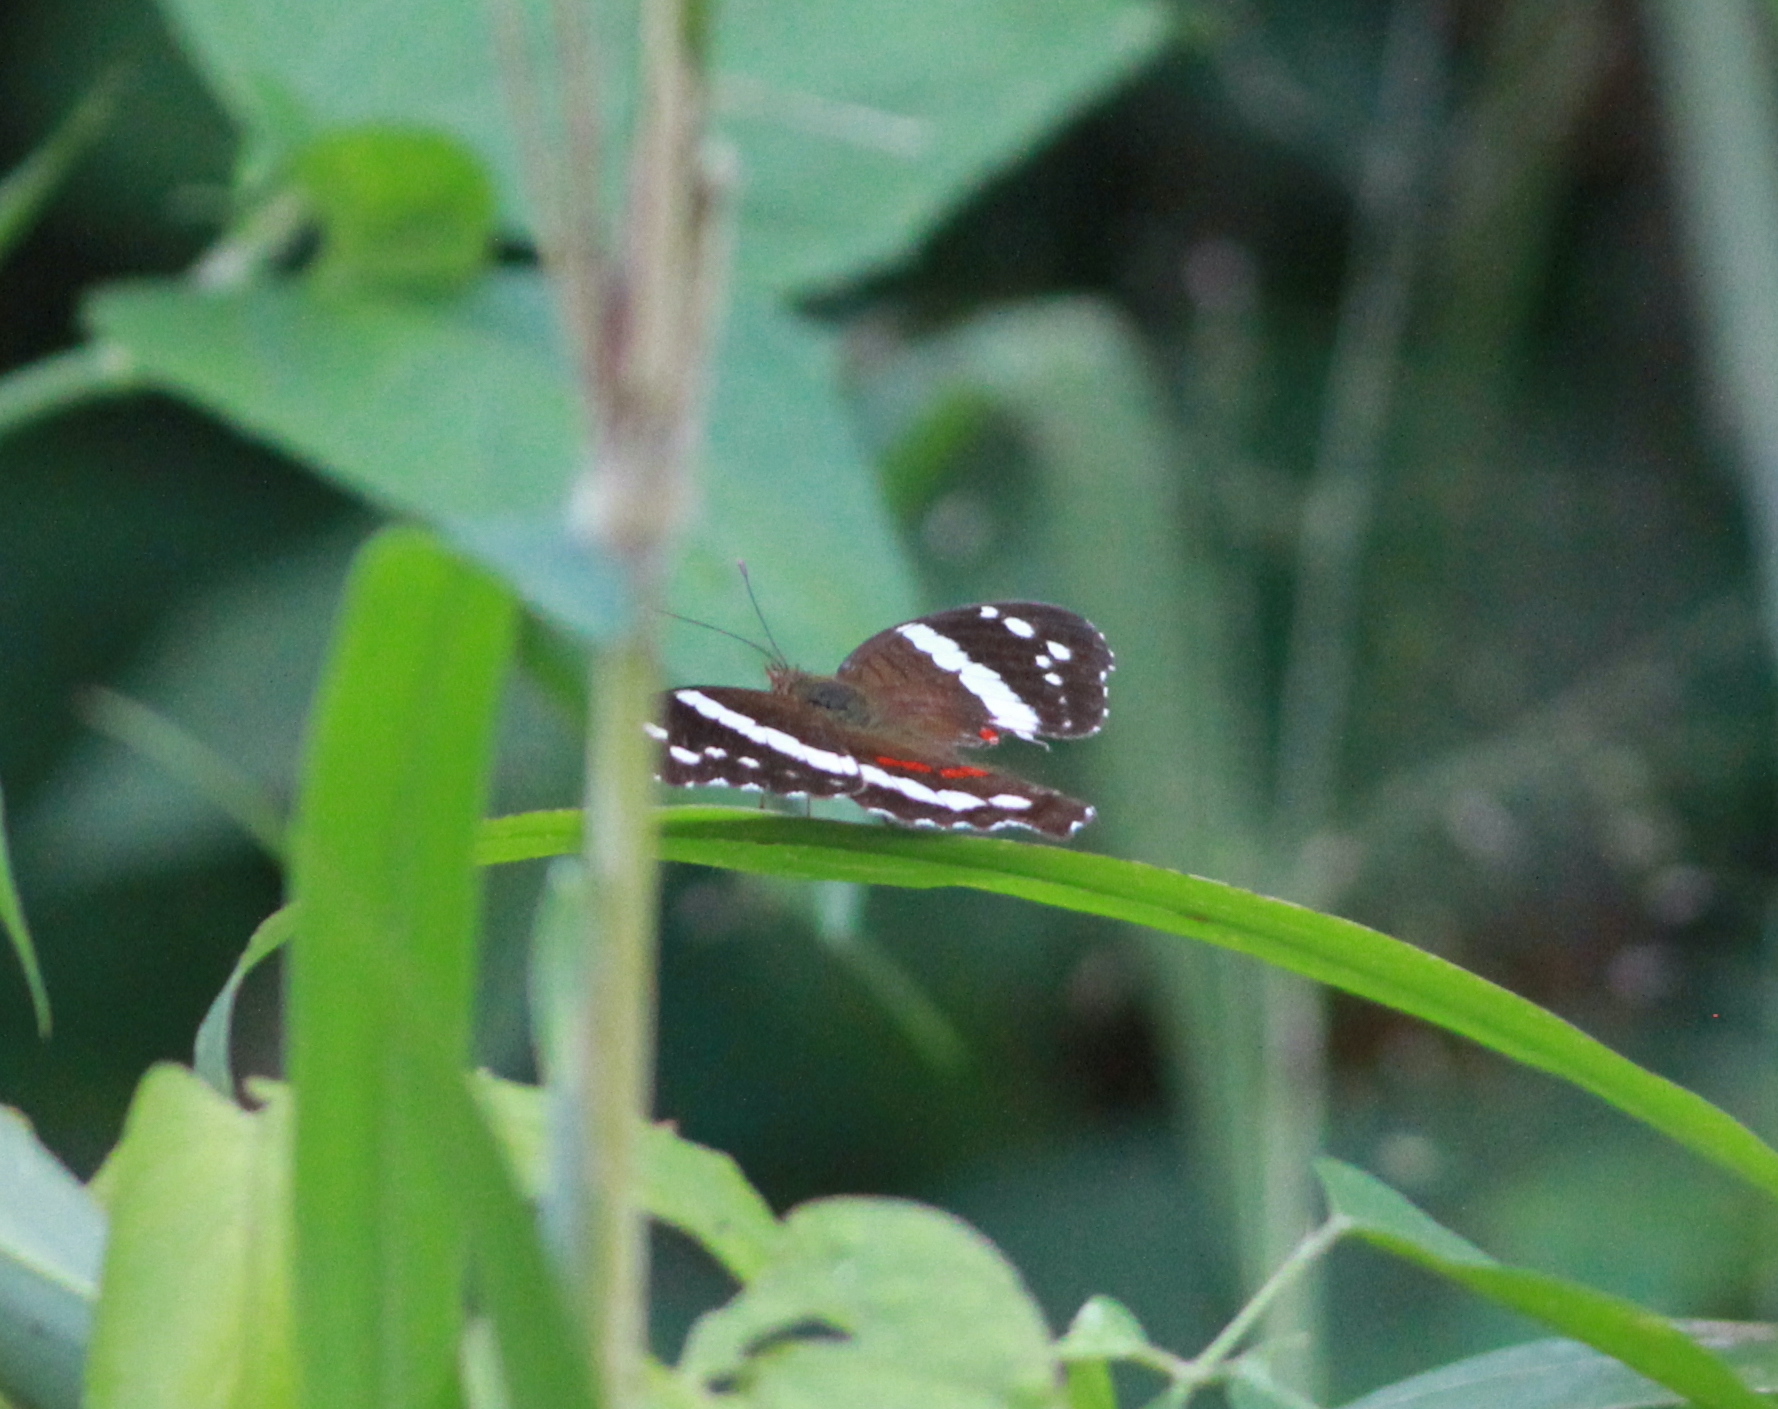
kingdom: Animalia
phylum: Arthropoda
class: Insecta
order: Lepidoptera
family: Nymphalidae
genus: Anartia
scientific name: Anartia fatima
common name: Banded peacock
